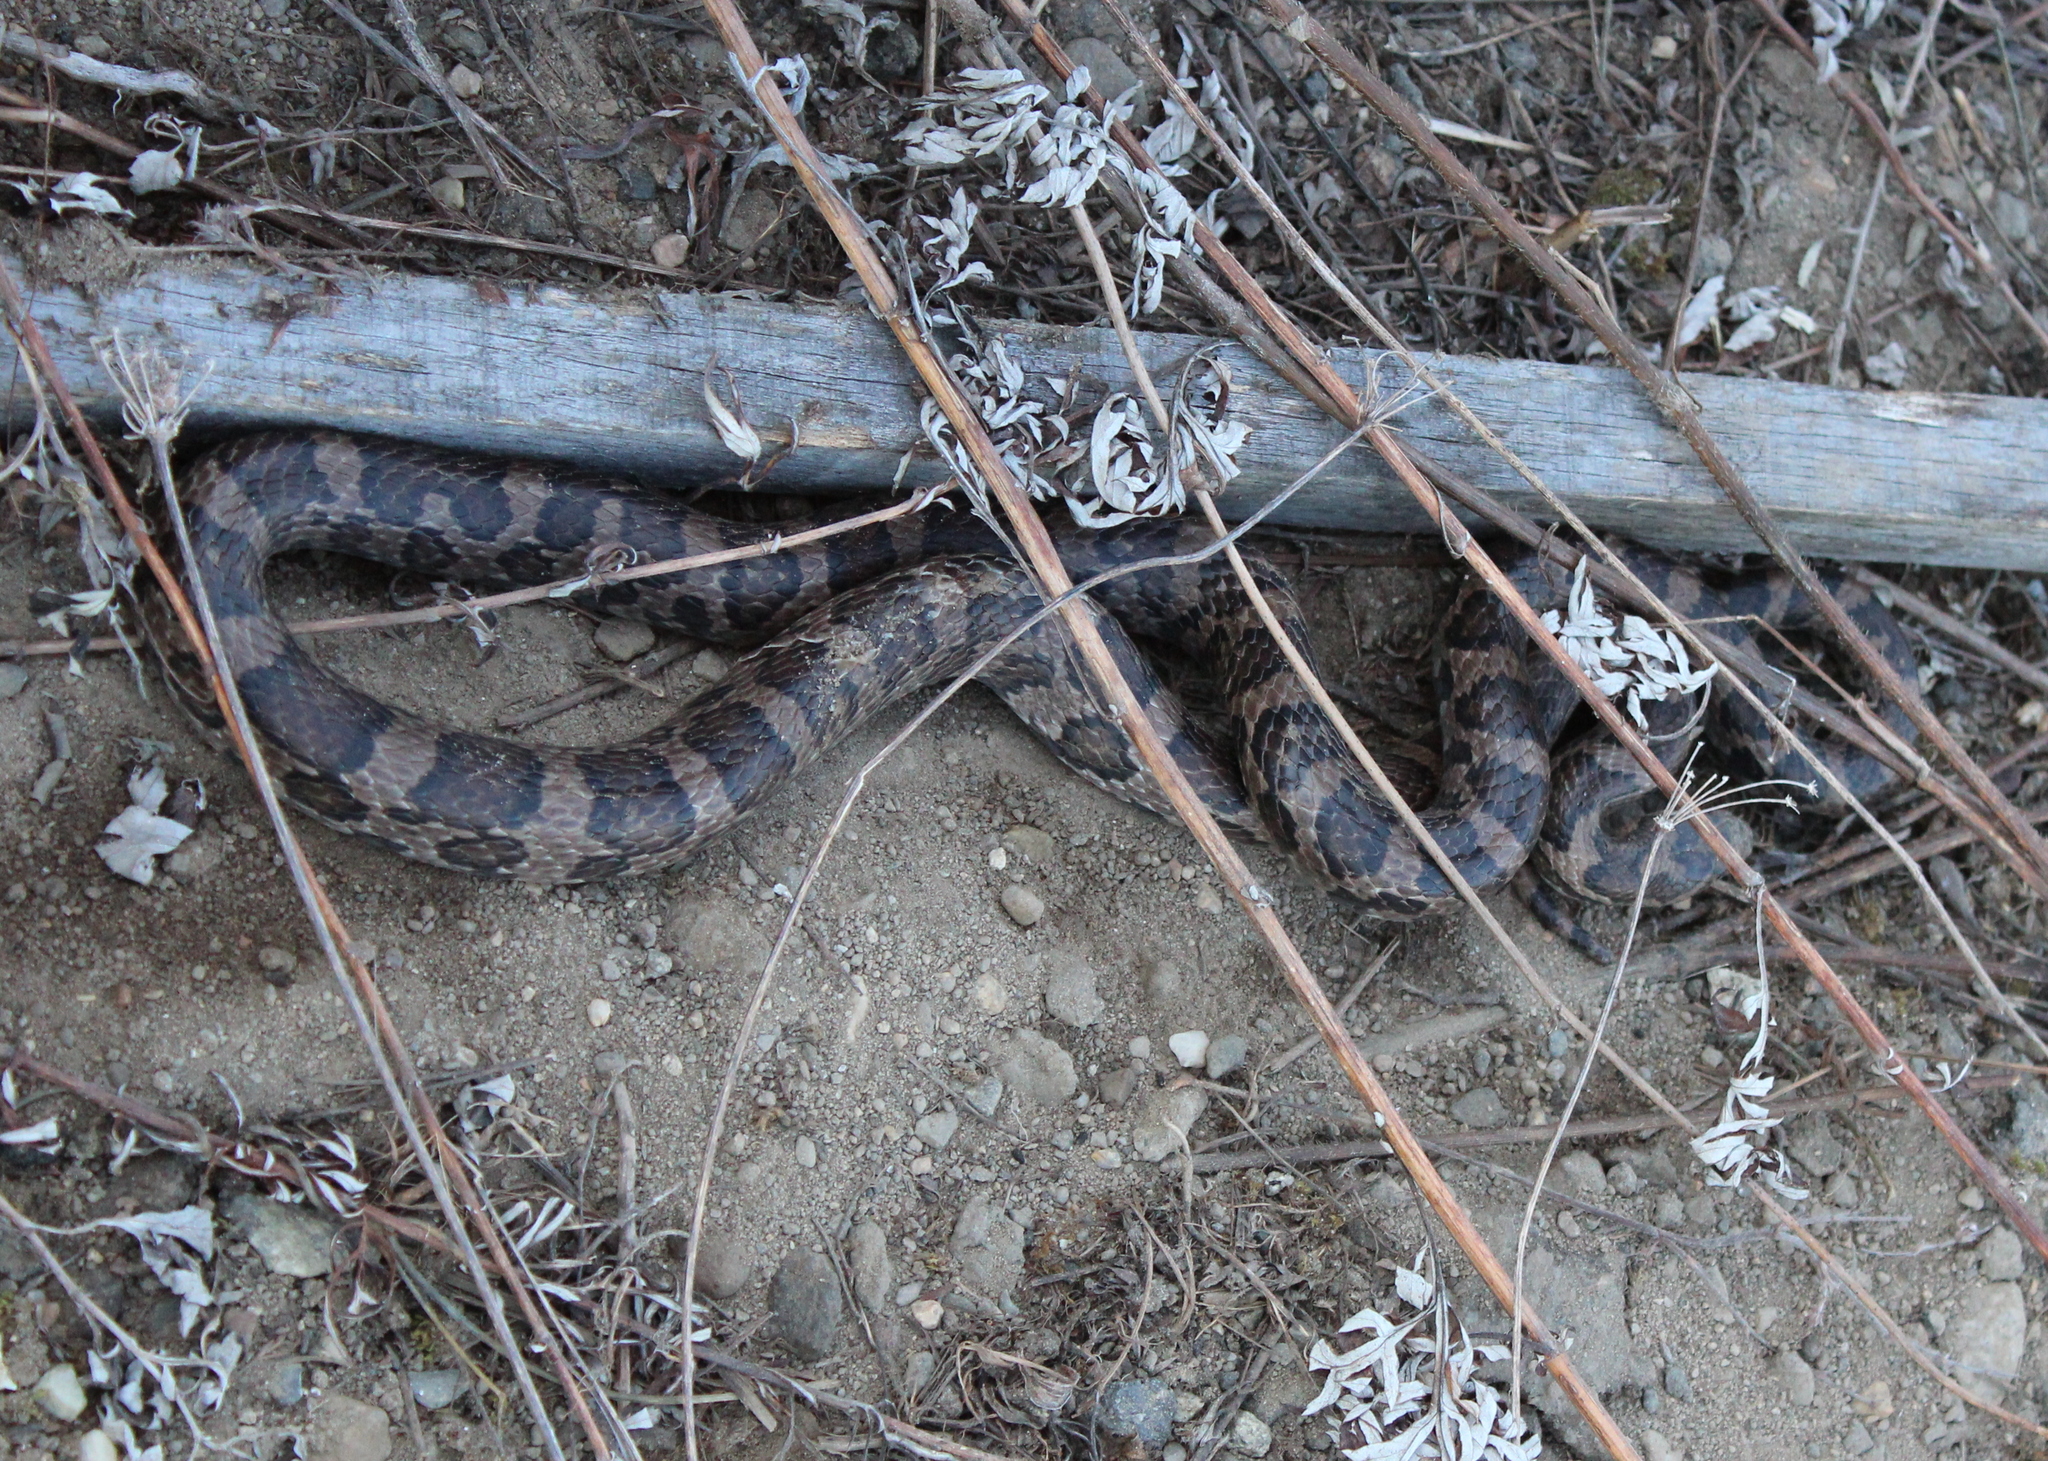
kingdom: Animalia
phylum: Chordata
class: Squamata
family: Colubridae
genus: Lampropeltis
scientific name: Lampropeltis triangulum
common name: Eastern milksnake
